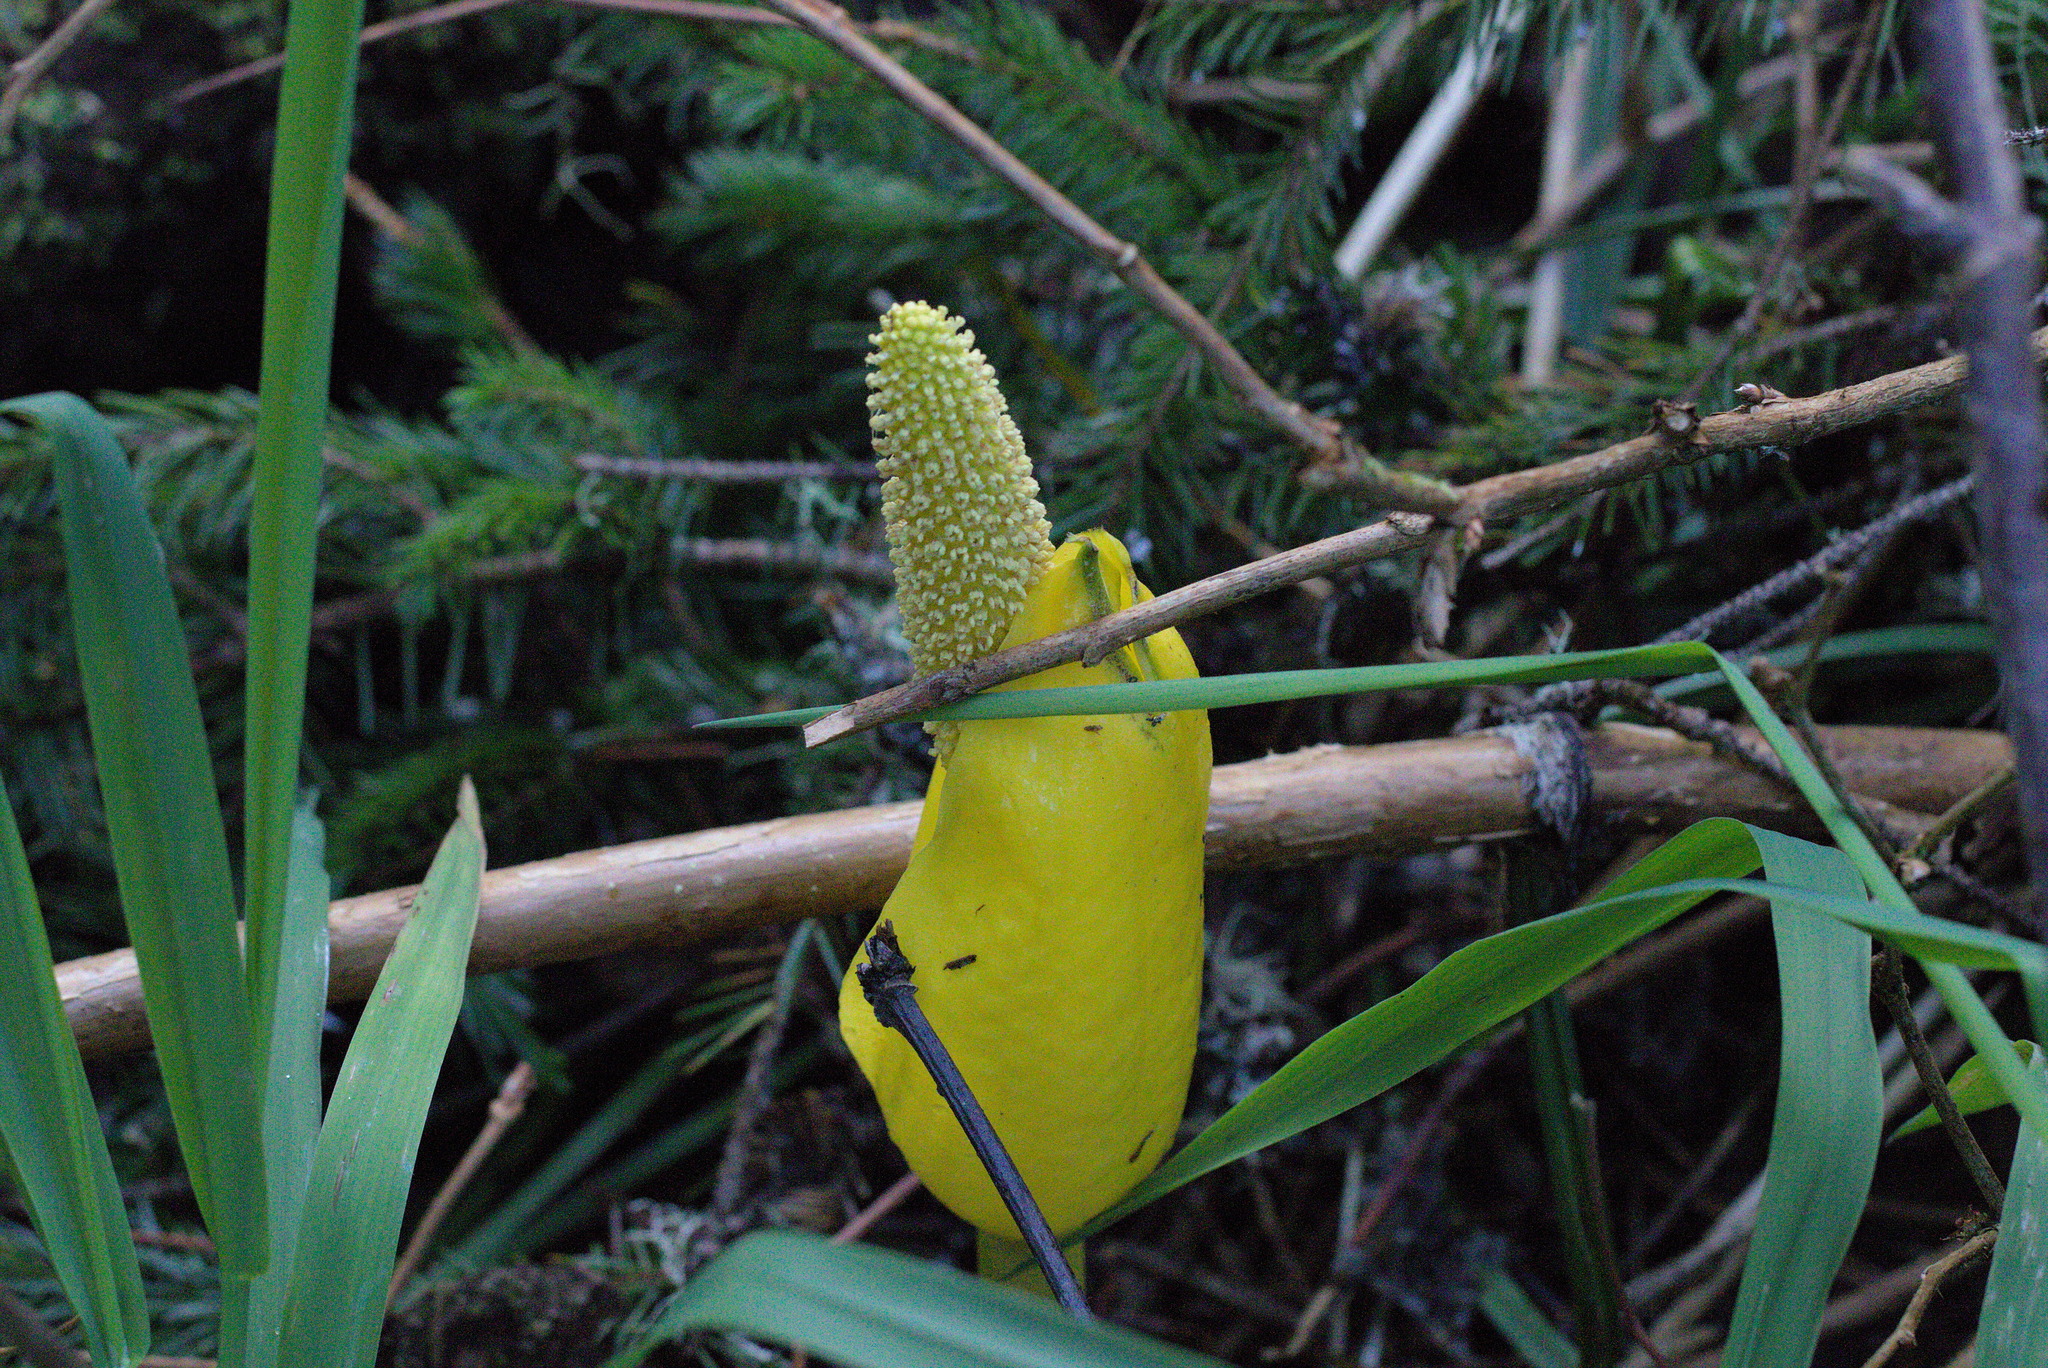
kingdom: Plantae
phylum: Tracheophyta
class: Liliopsida
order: Alismatales
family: Araceae
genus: Lysichiton
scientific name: Lysichiton americanus
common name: American skunk cabbage
